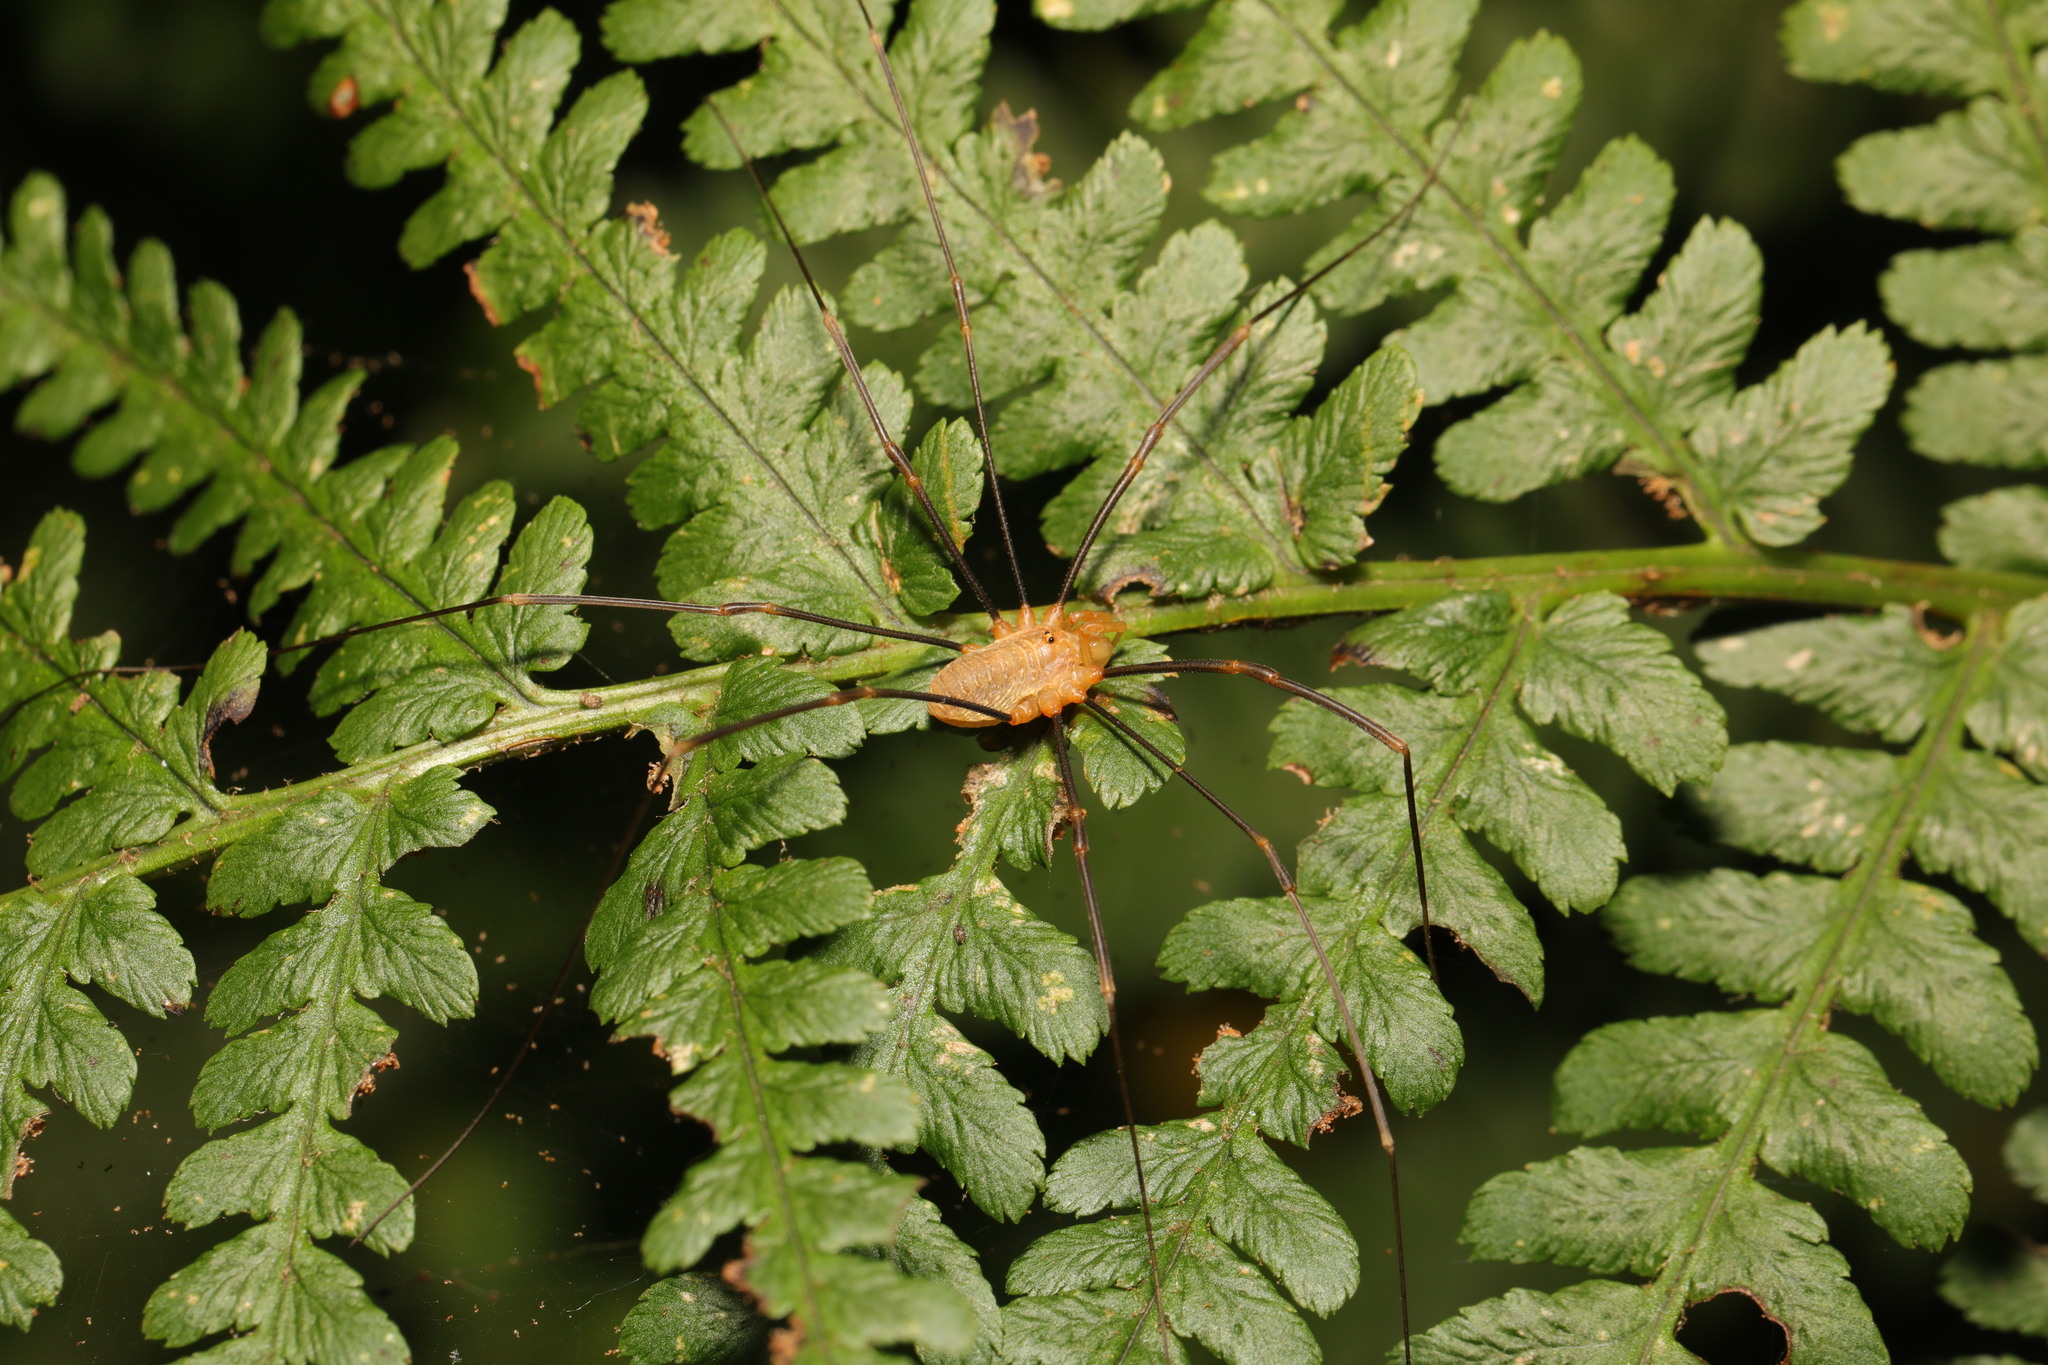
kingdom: Animalia
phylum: Arthropoda
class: Arachnida
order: Opiliones
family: Phalangiidae
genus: Opilio
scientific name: Opilio canestrinii
